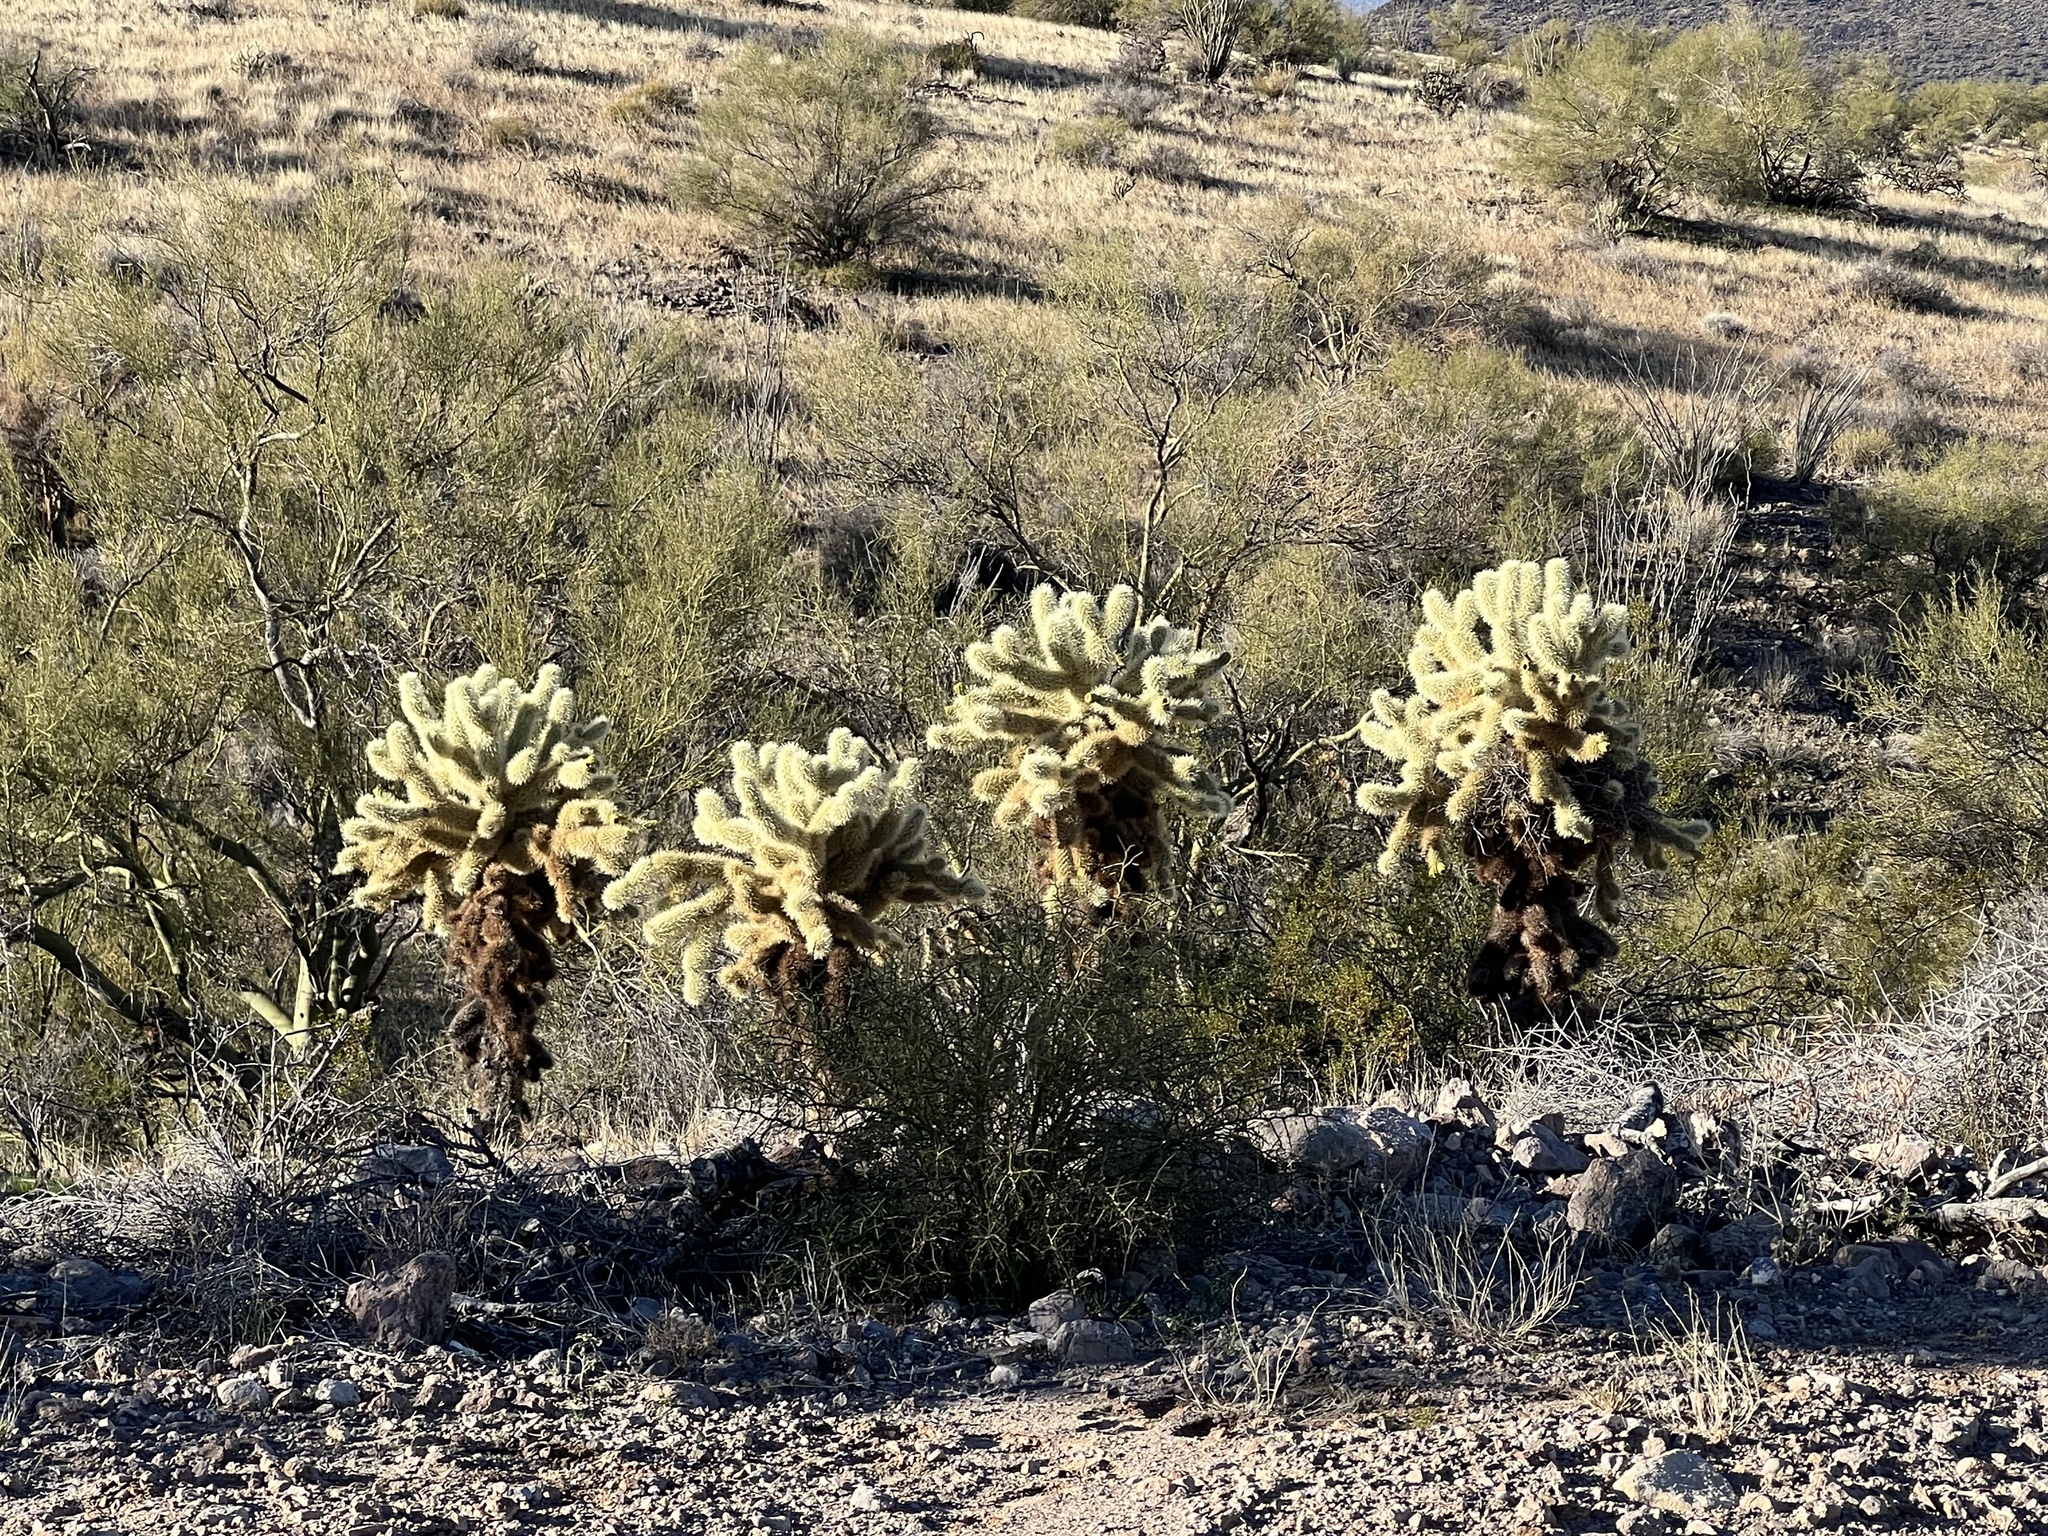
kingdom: Plantae
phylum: Tracheophyta
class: Magnoliopsida
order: Caryophyllales
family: Cactaceae
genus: Cylindropuntia
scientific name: Cylindropuntia fosbergii
